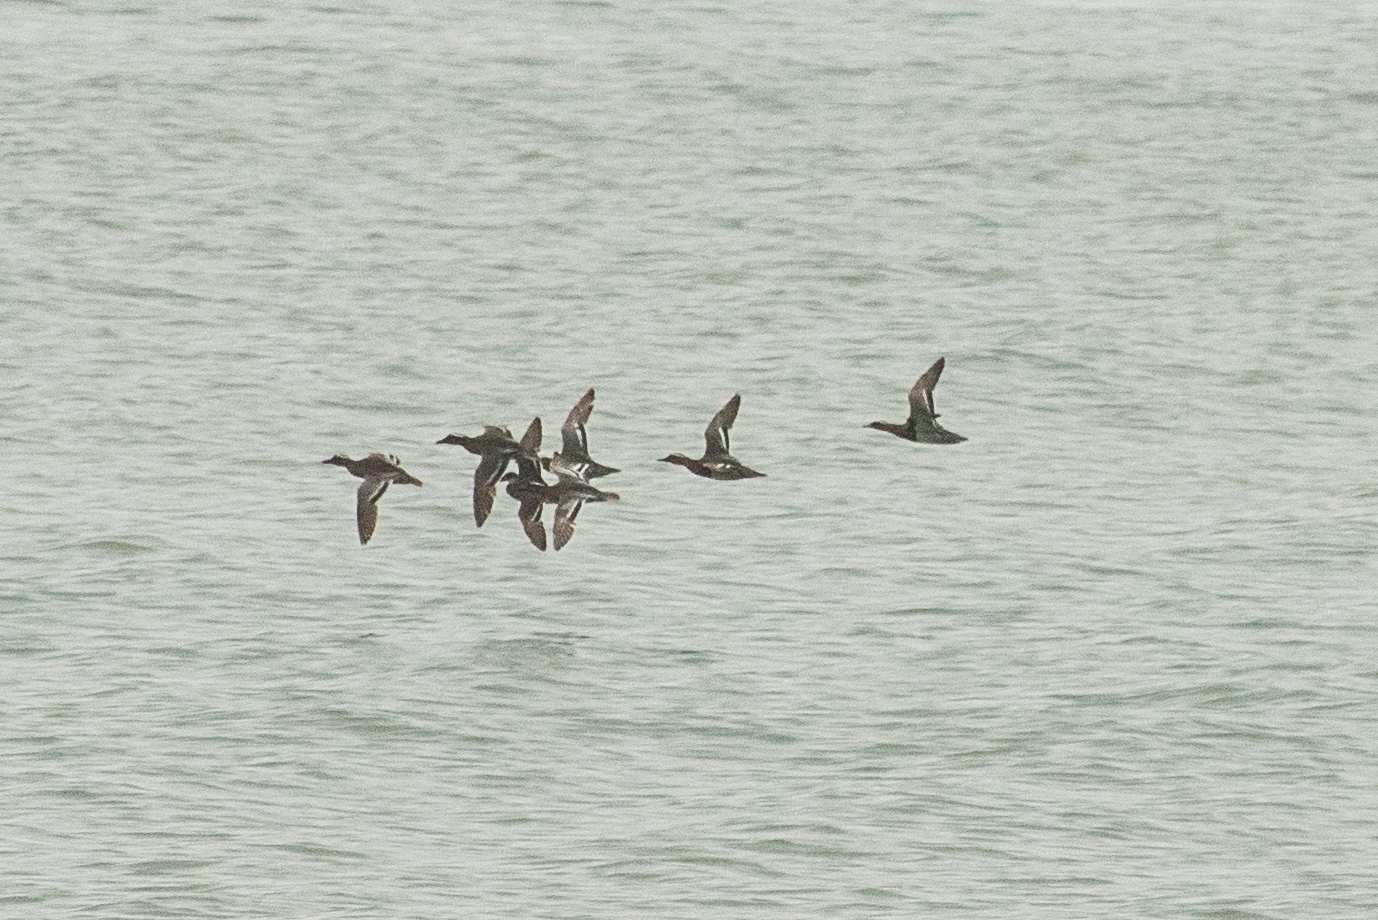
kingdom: Animalia
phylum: Chordata
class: Aves
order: Anseriformes
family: Anatidae
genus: Spatula
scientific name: Spatula querquedula
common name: Garganey
